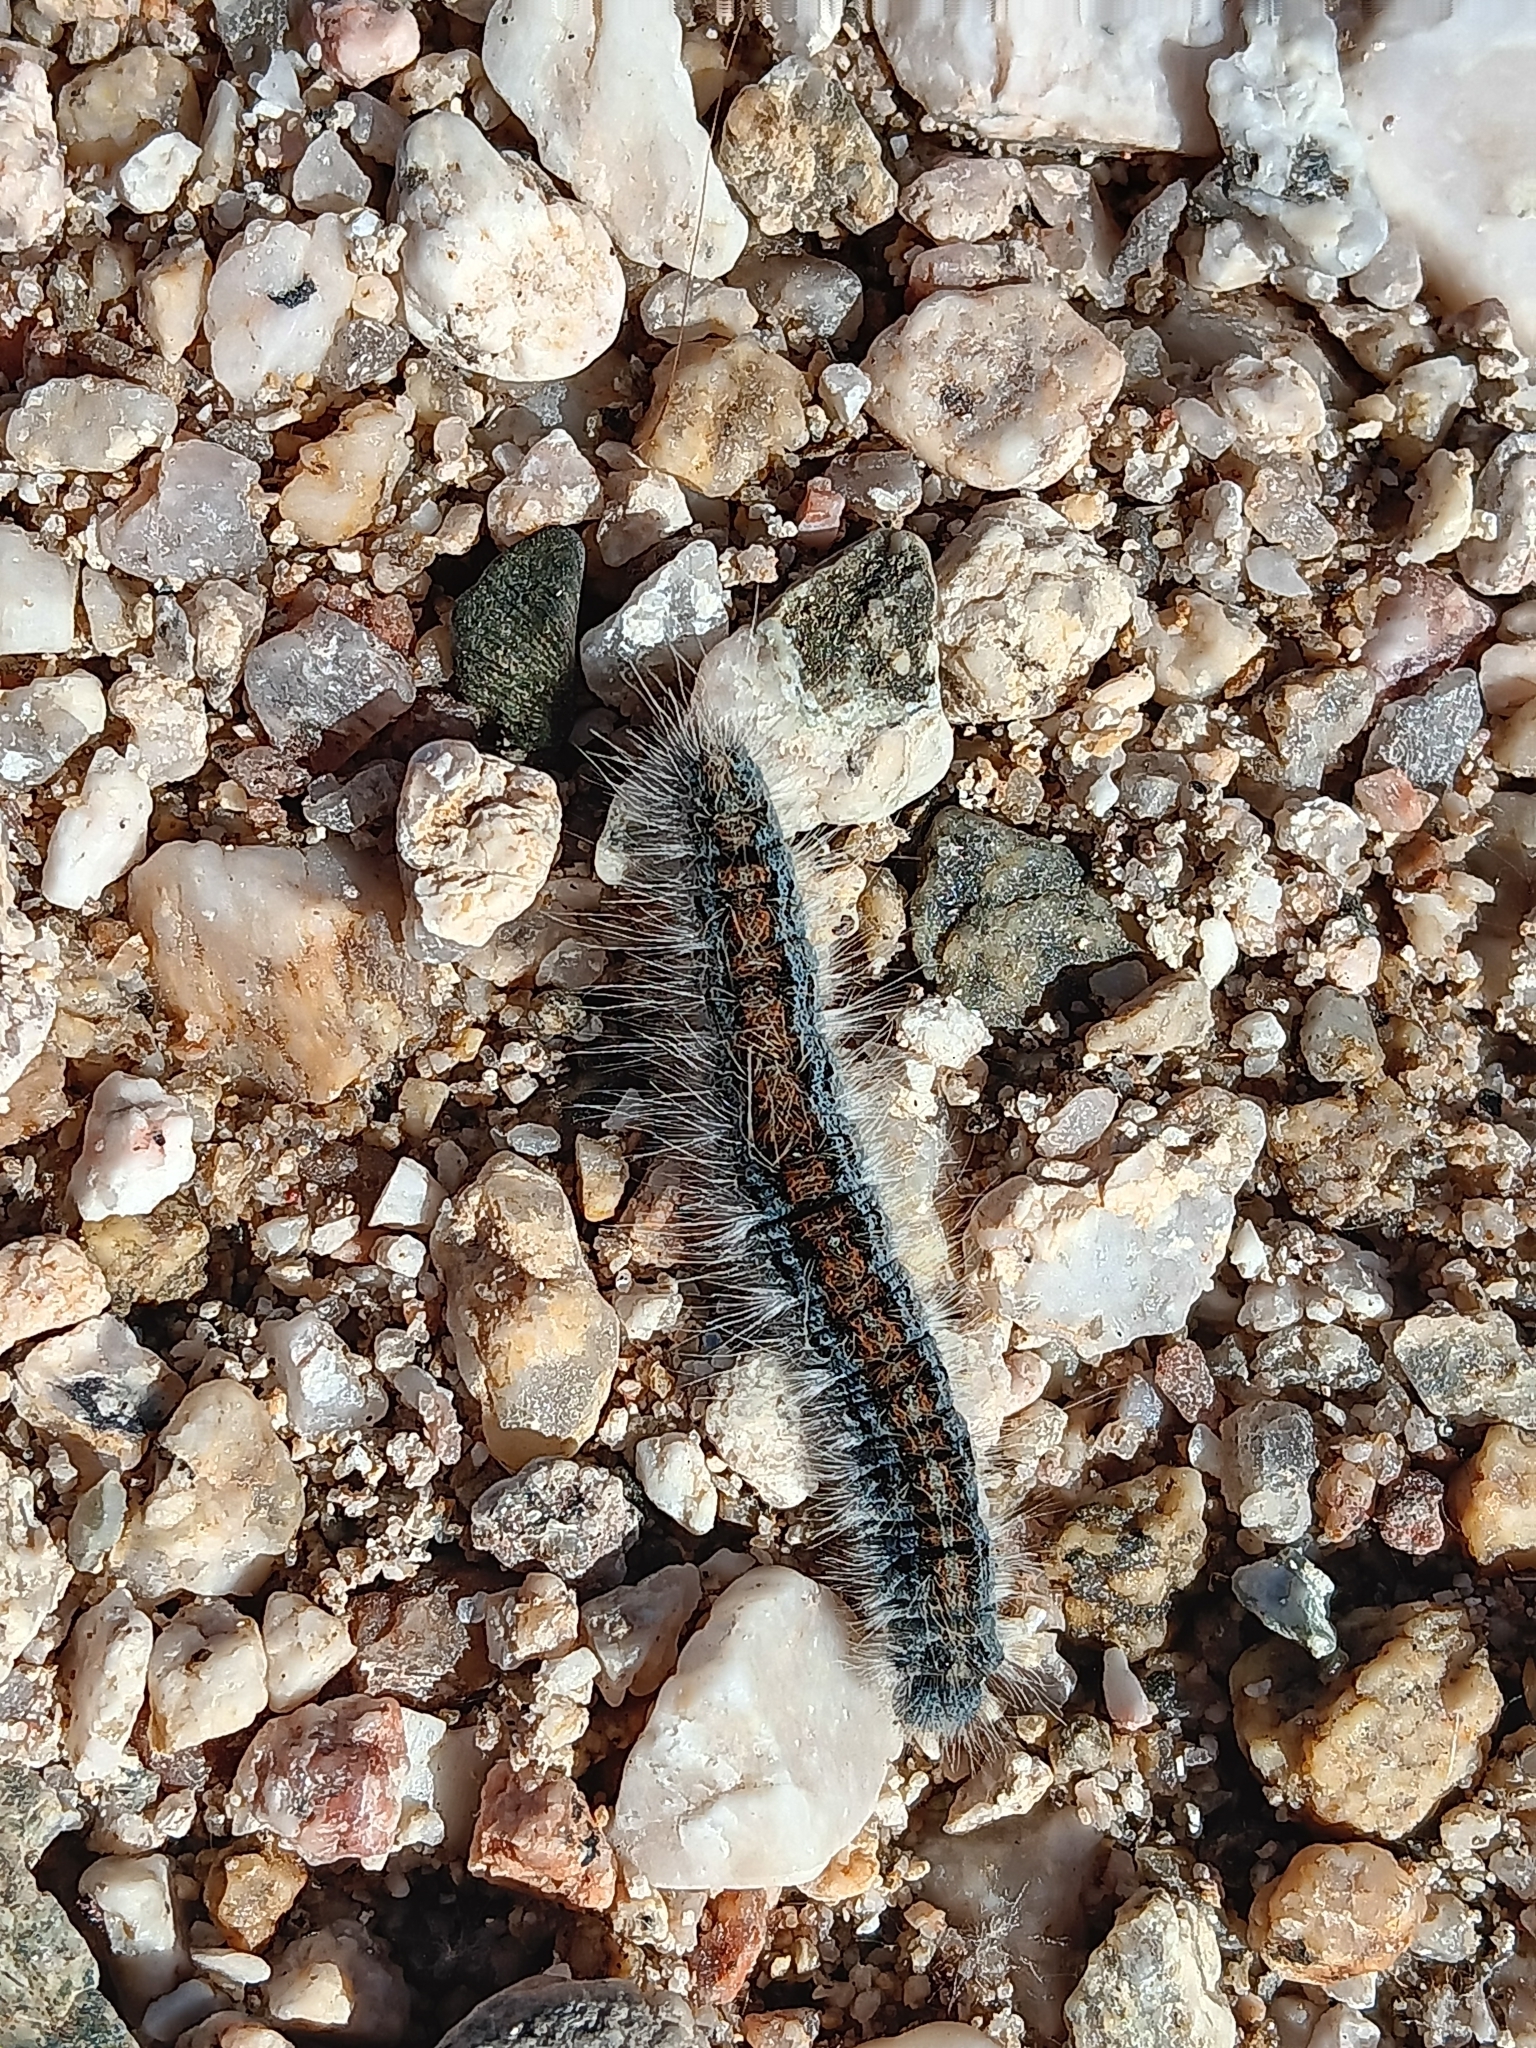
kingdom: Animalia
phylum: Arthropoda
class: Insecta
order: Lepidoptera
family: Lasiocampidae
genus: Malacosoma
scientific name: Malacosoma incurva
